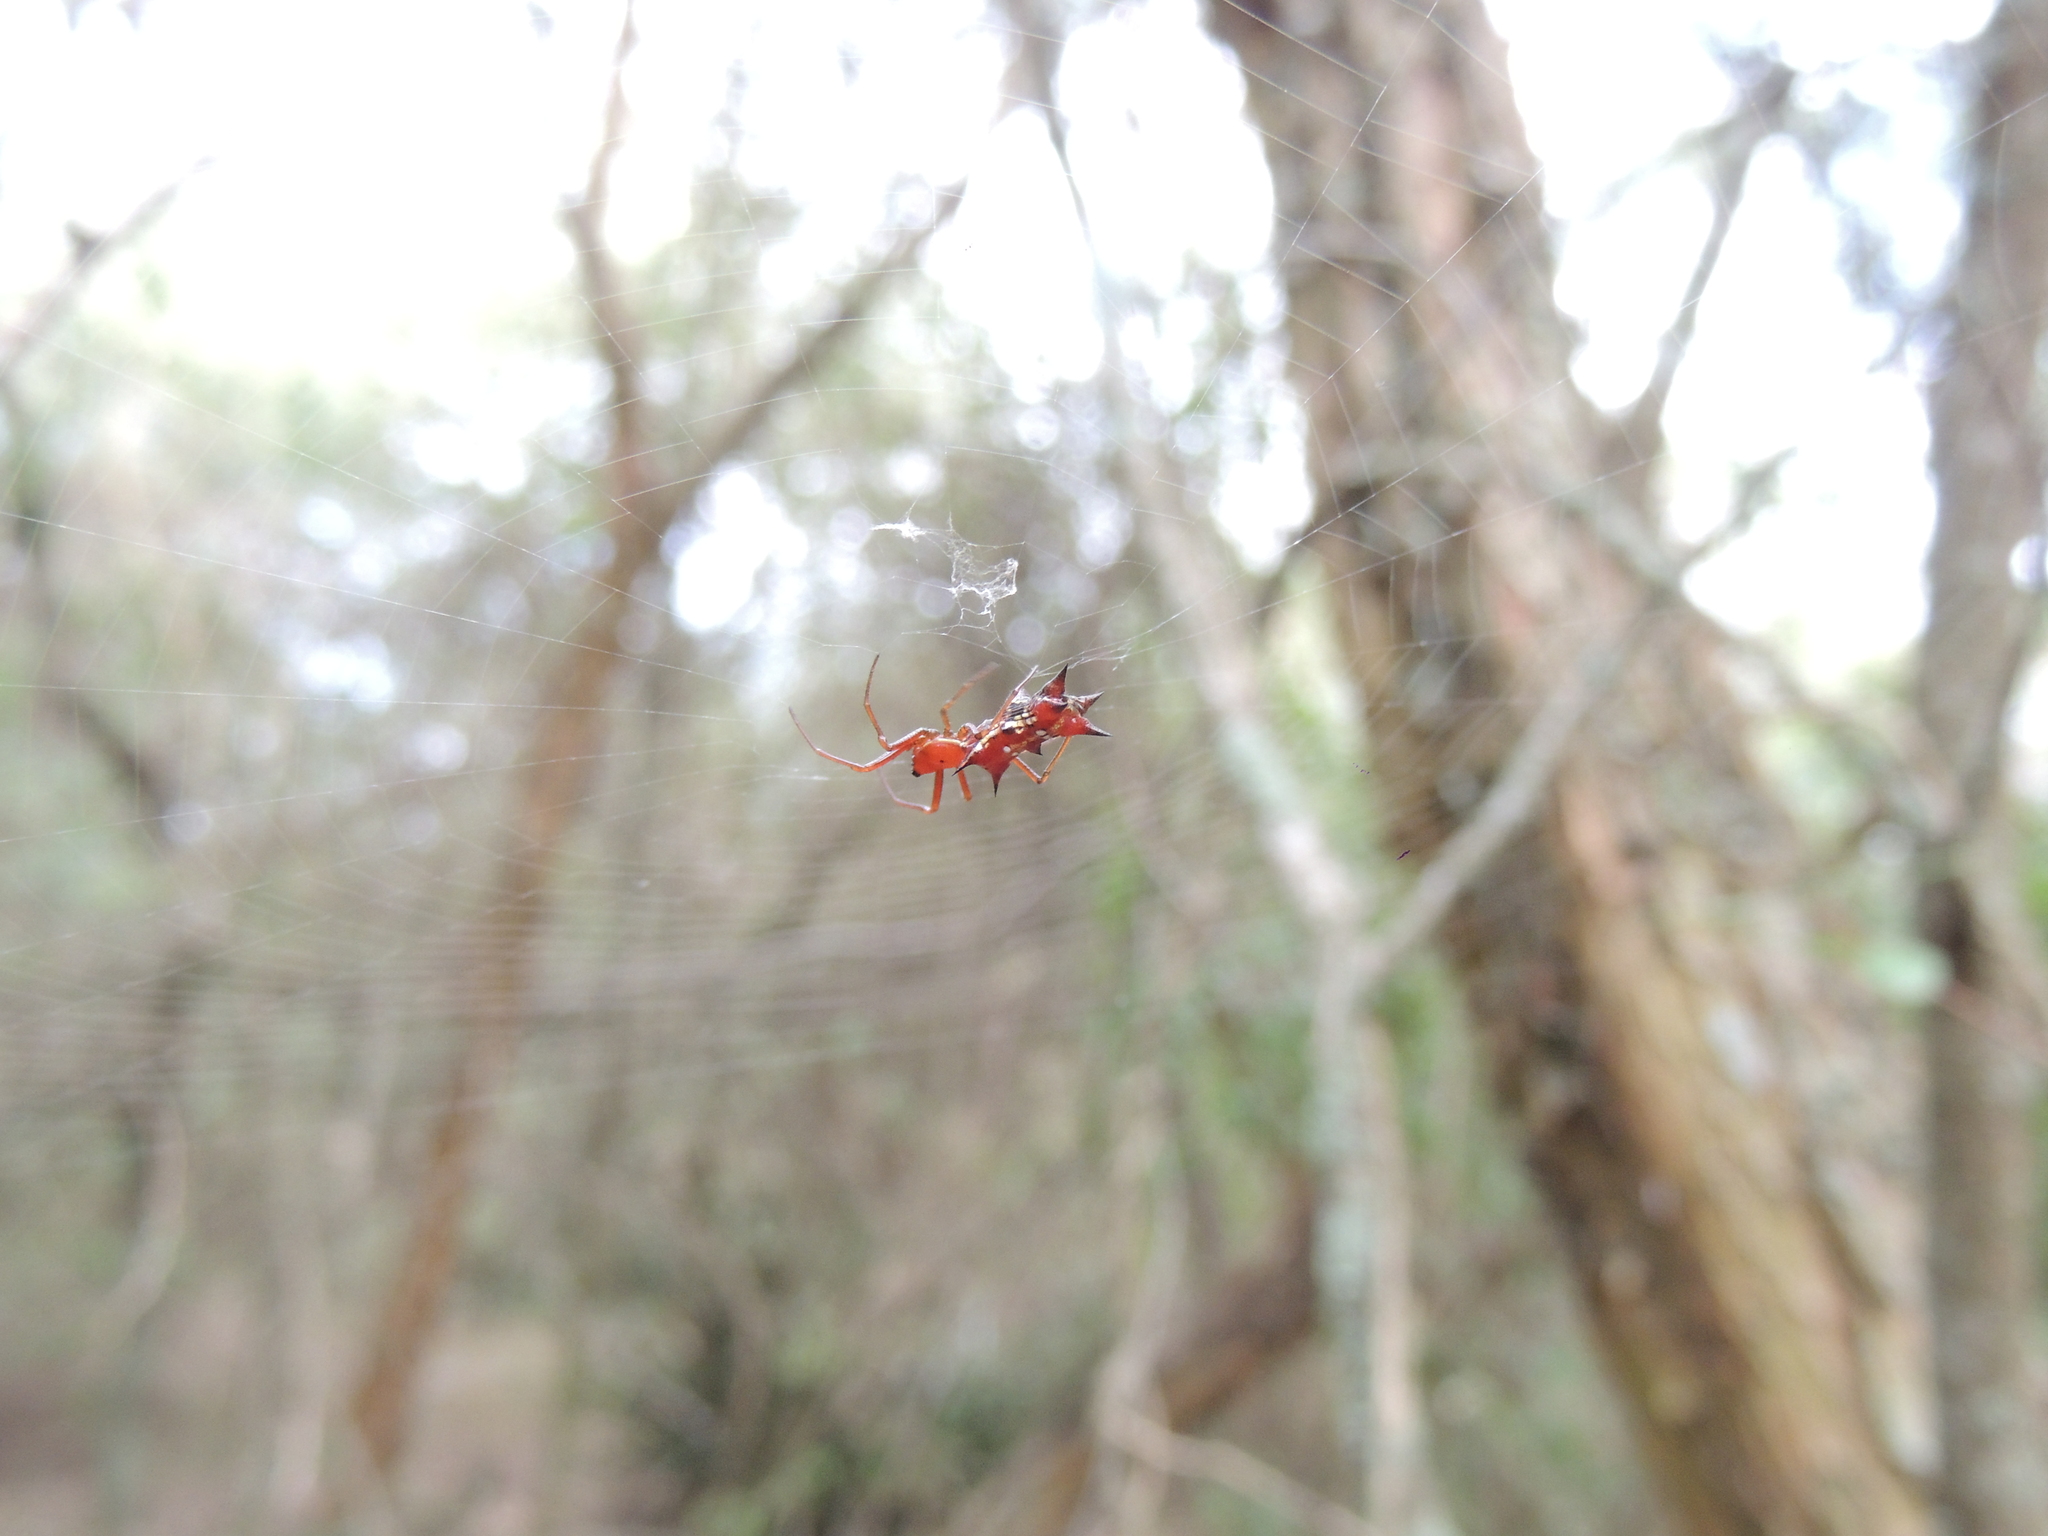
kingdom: Animalia
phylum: Arthropoda
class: Arachnida
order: Araneae
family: Araneidae
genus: Micrathena
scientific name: Micrathena swainsoni
